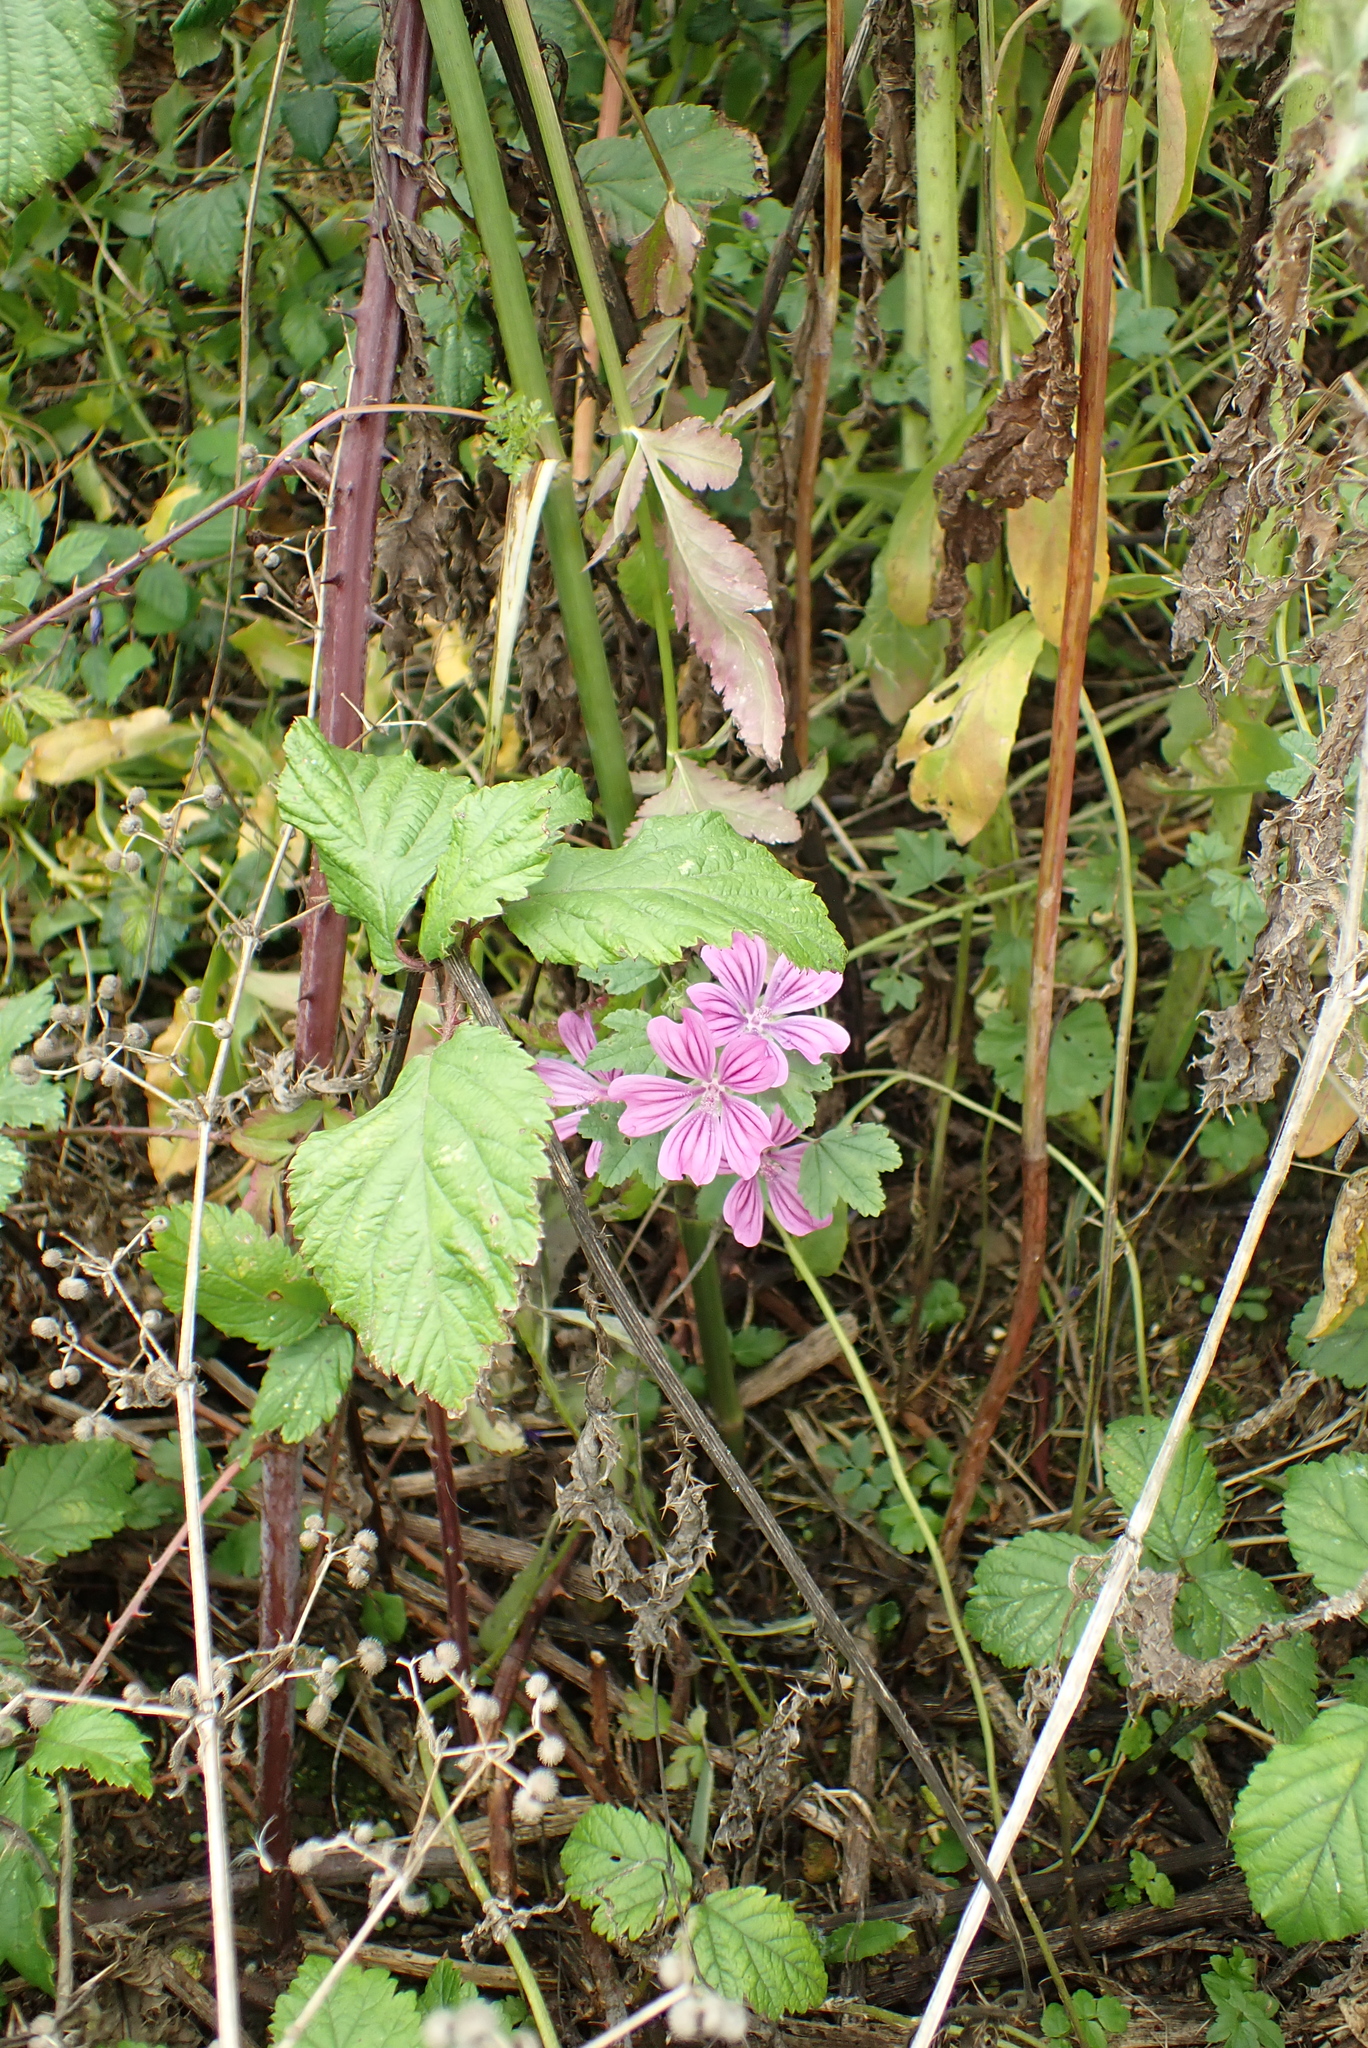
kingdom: Plantae
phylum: Tracheophyta
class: Magnoliopsida
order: Malvales
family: Malvaceae
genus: Malva
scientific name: Malva sylvestris
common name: Common mallow
